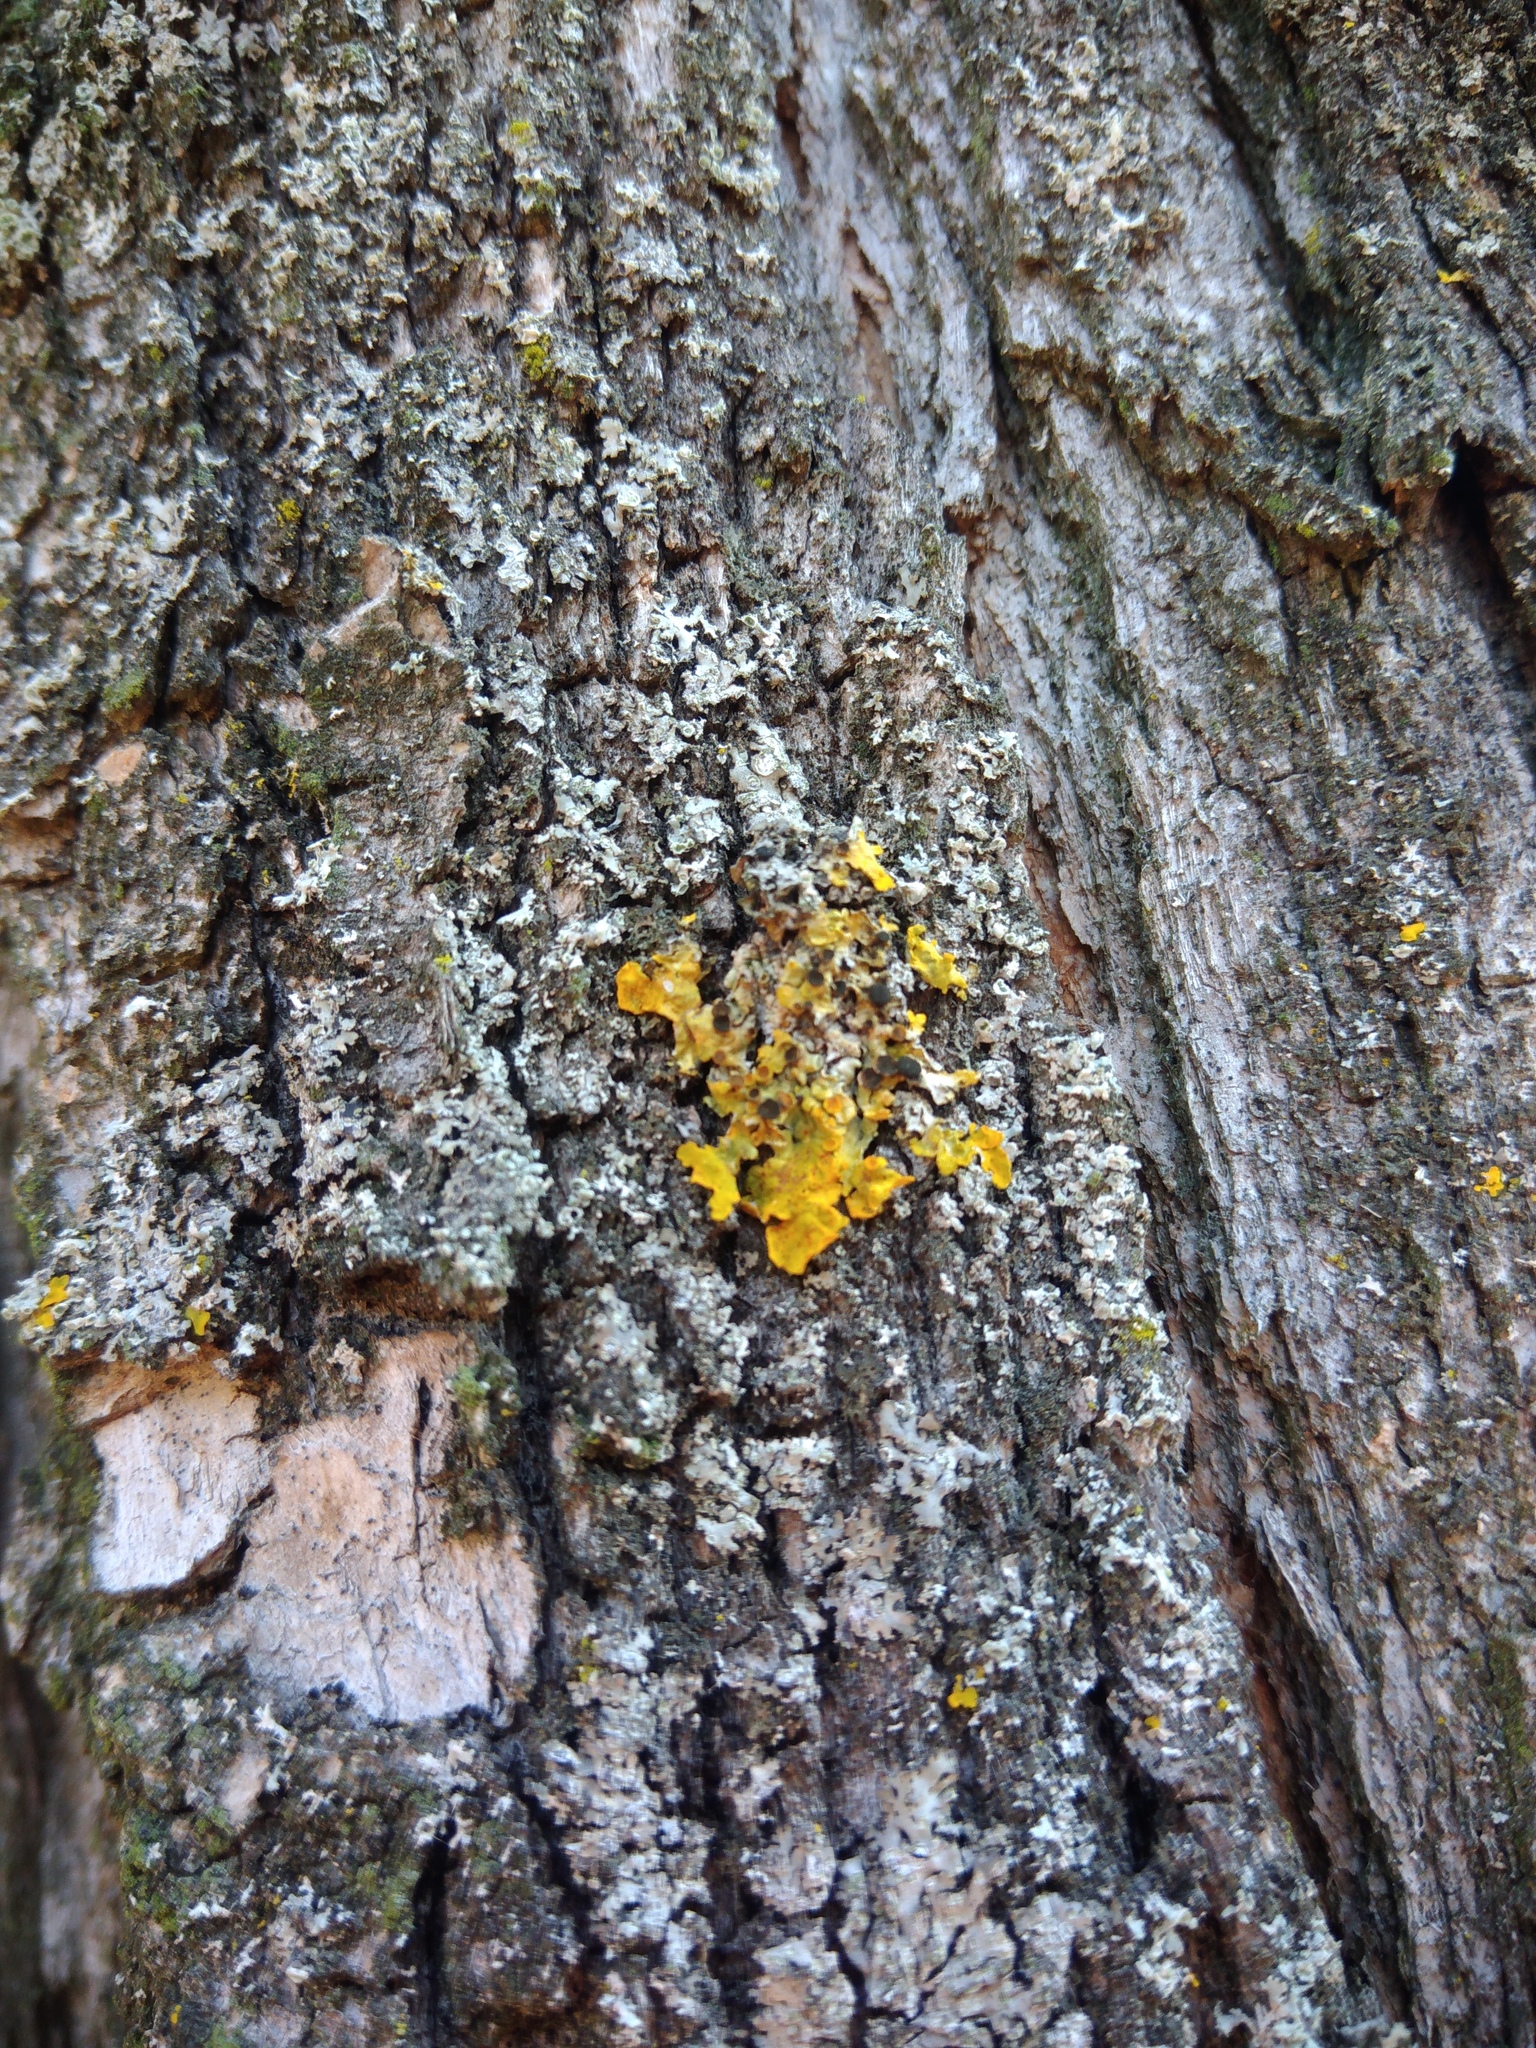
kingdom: Fungi
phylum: Ascomycota
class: Lecanoromycetes
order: Teloschistales
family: Teloschistaceae
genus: Xanthoria
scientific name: Xanthoria parietina
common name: Common orange lichen
